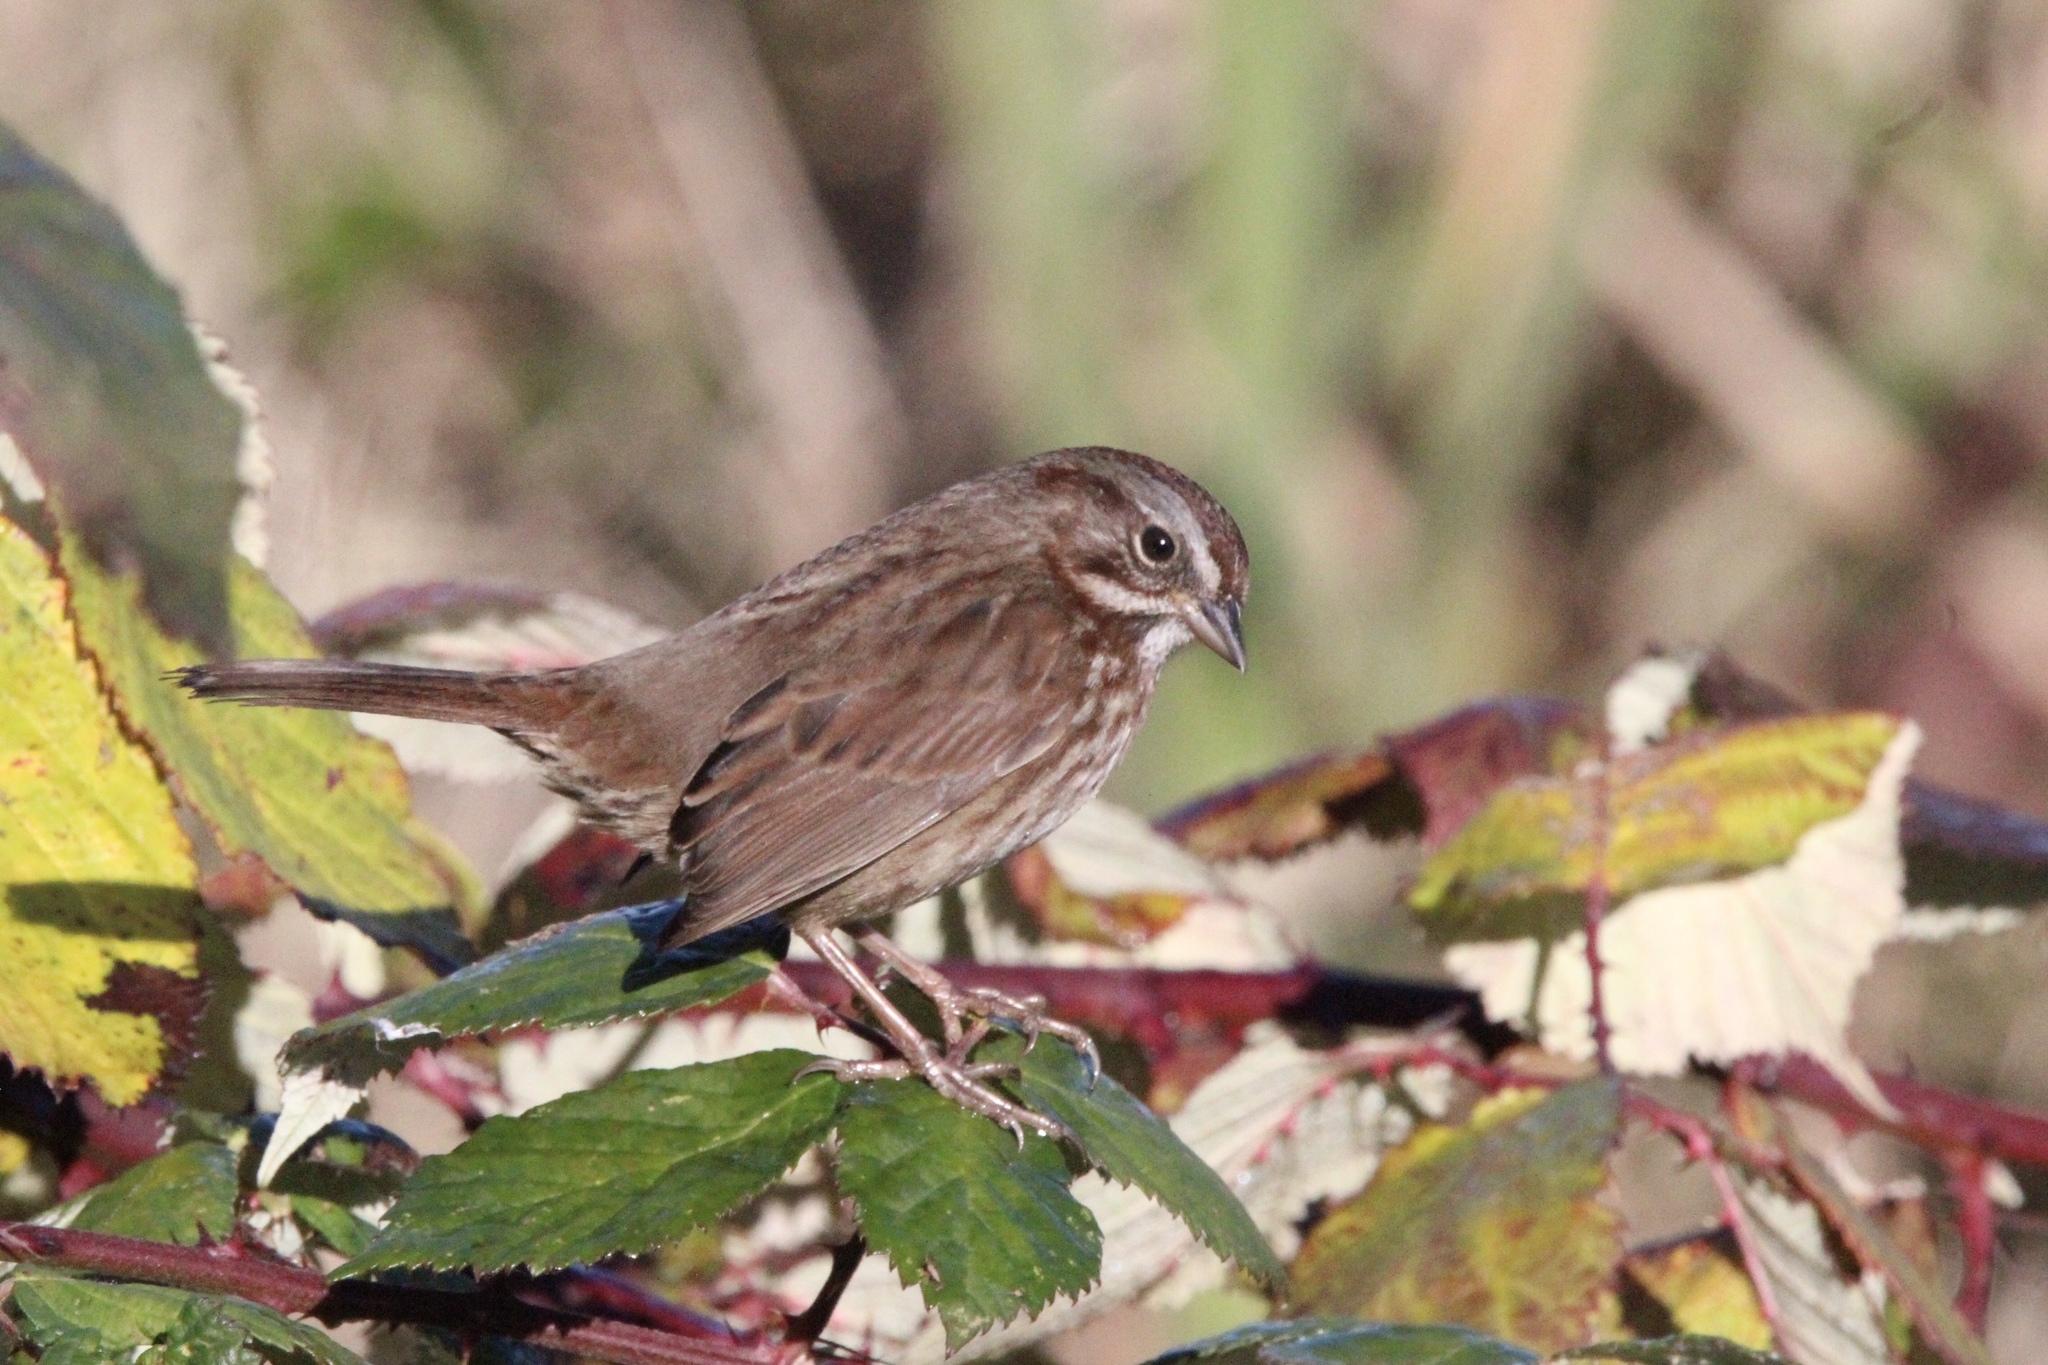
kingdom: Animalia
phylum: Chordata
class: Aves
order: Passeriformes
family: Passerellidae
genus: Melospiza
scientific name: Melospiza melodia
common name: Song sparrow
